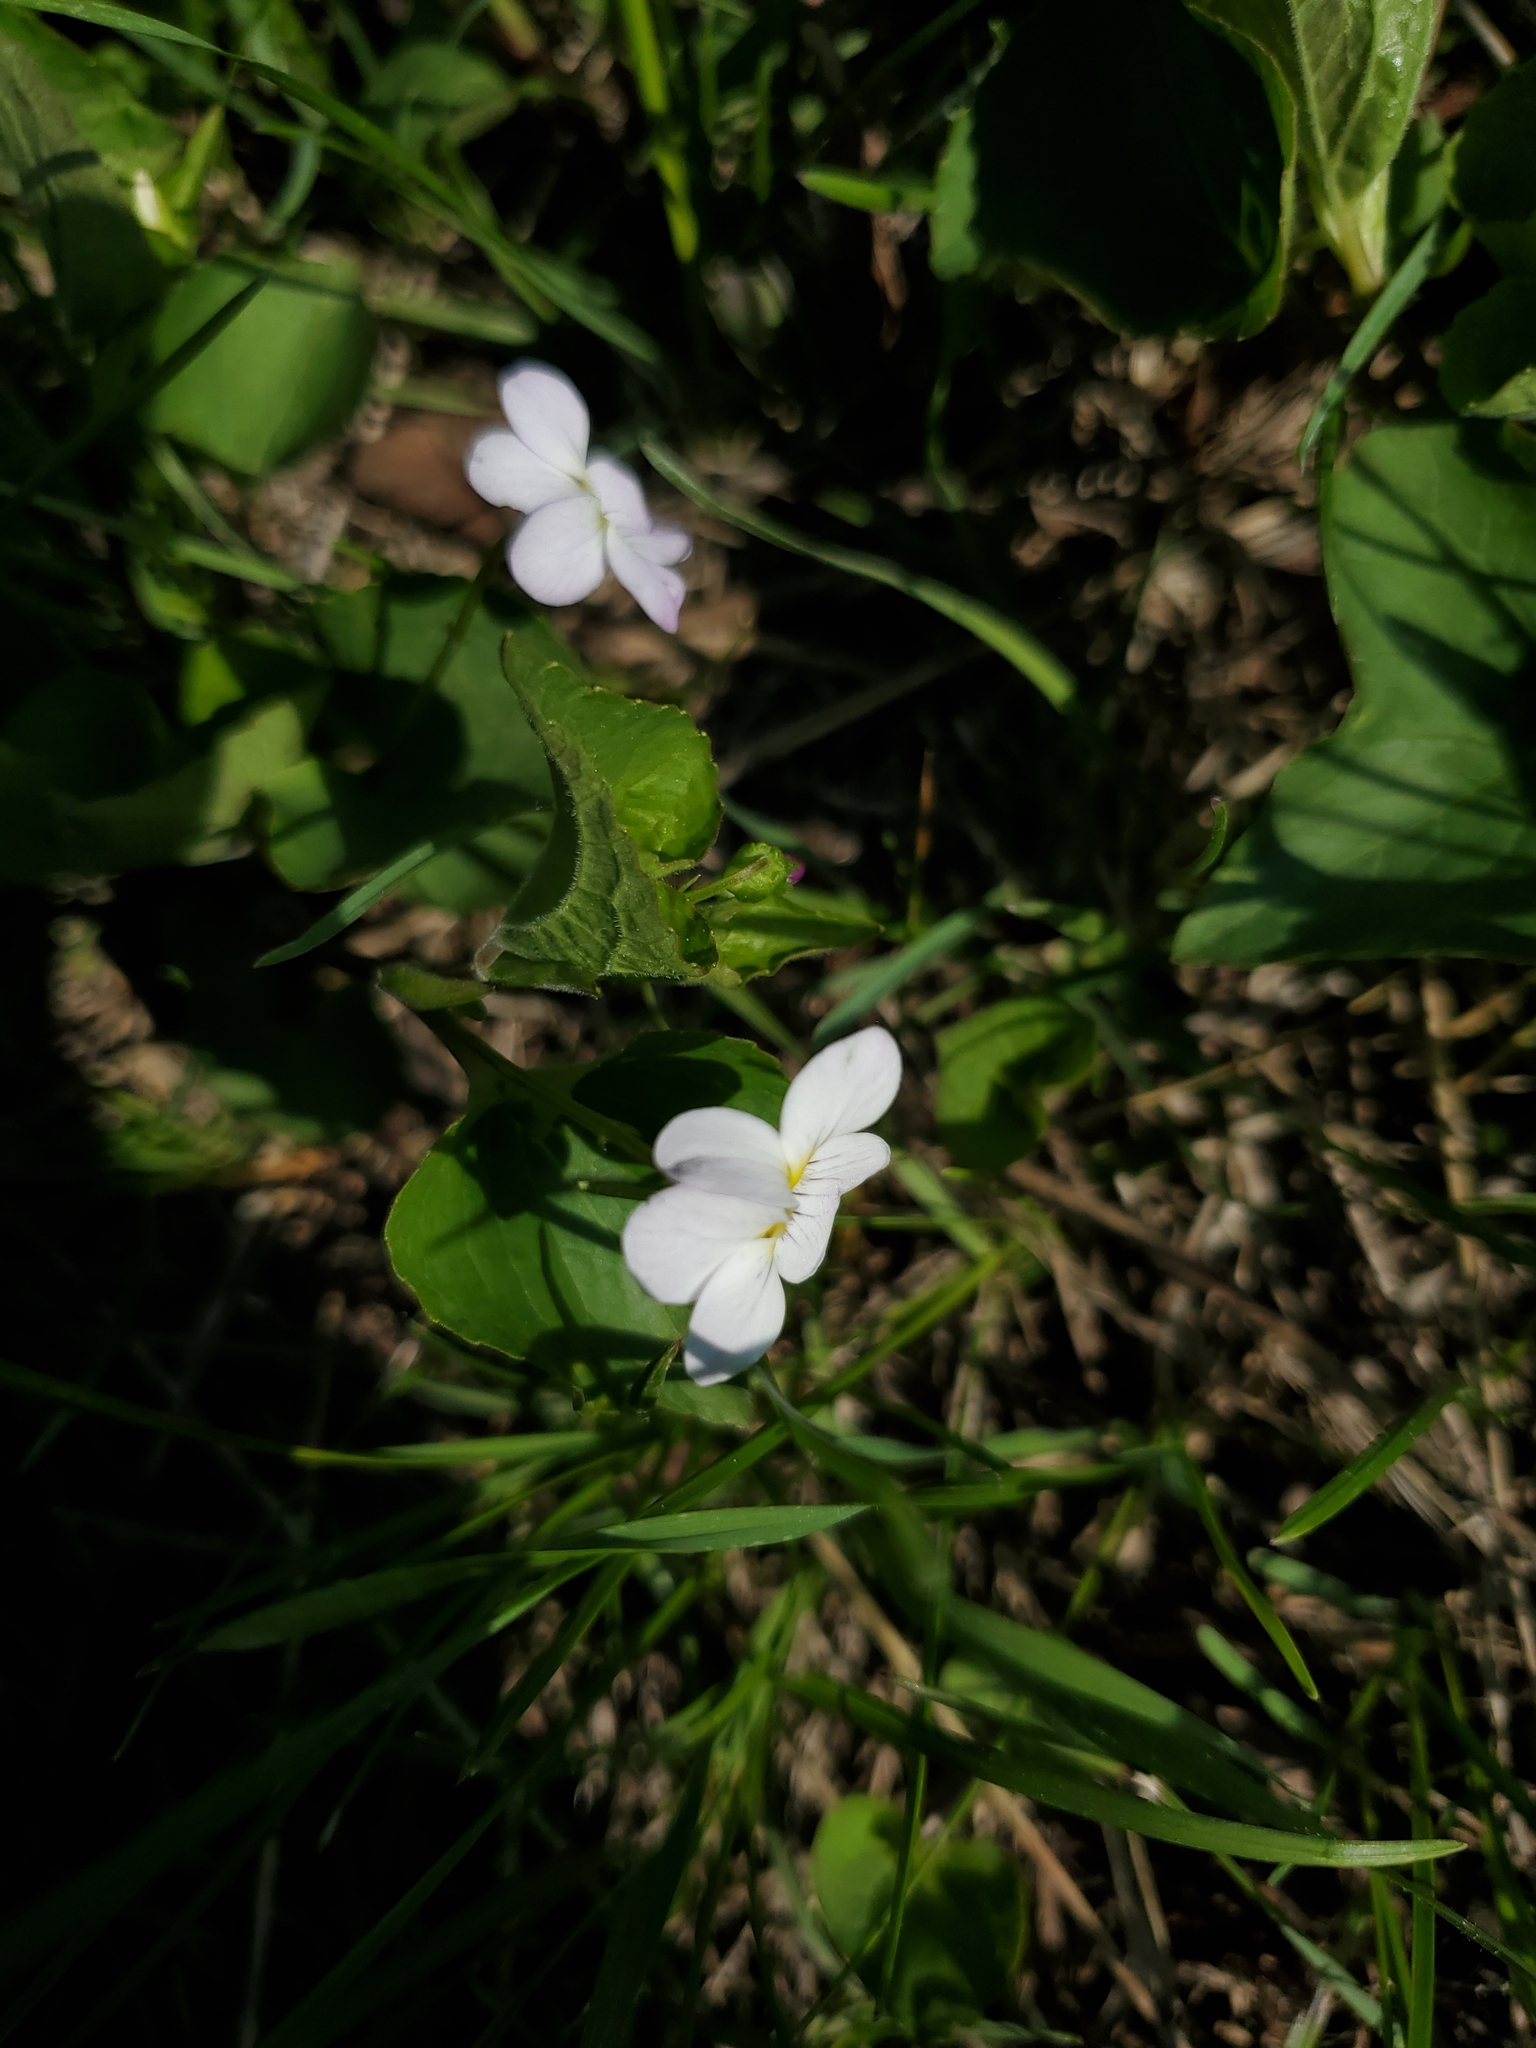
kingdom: Plantae
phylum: Tracheophyta
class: Magnoliopsida
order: Malpighiales
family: Violaceae
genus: Viola
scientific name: Viola canadensis
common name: Canada violet
